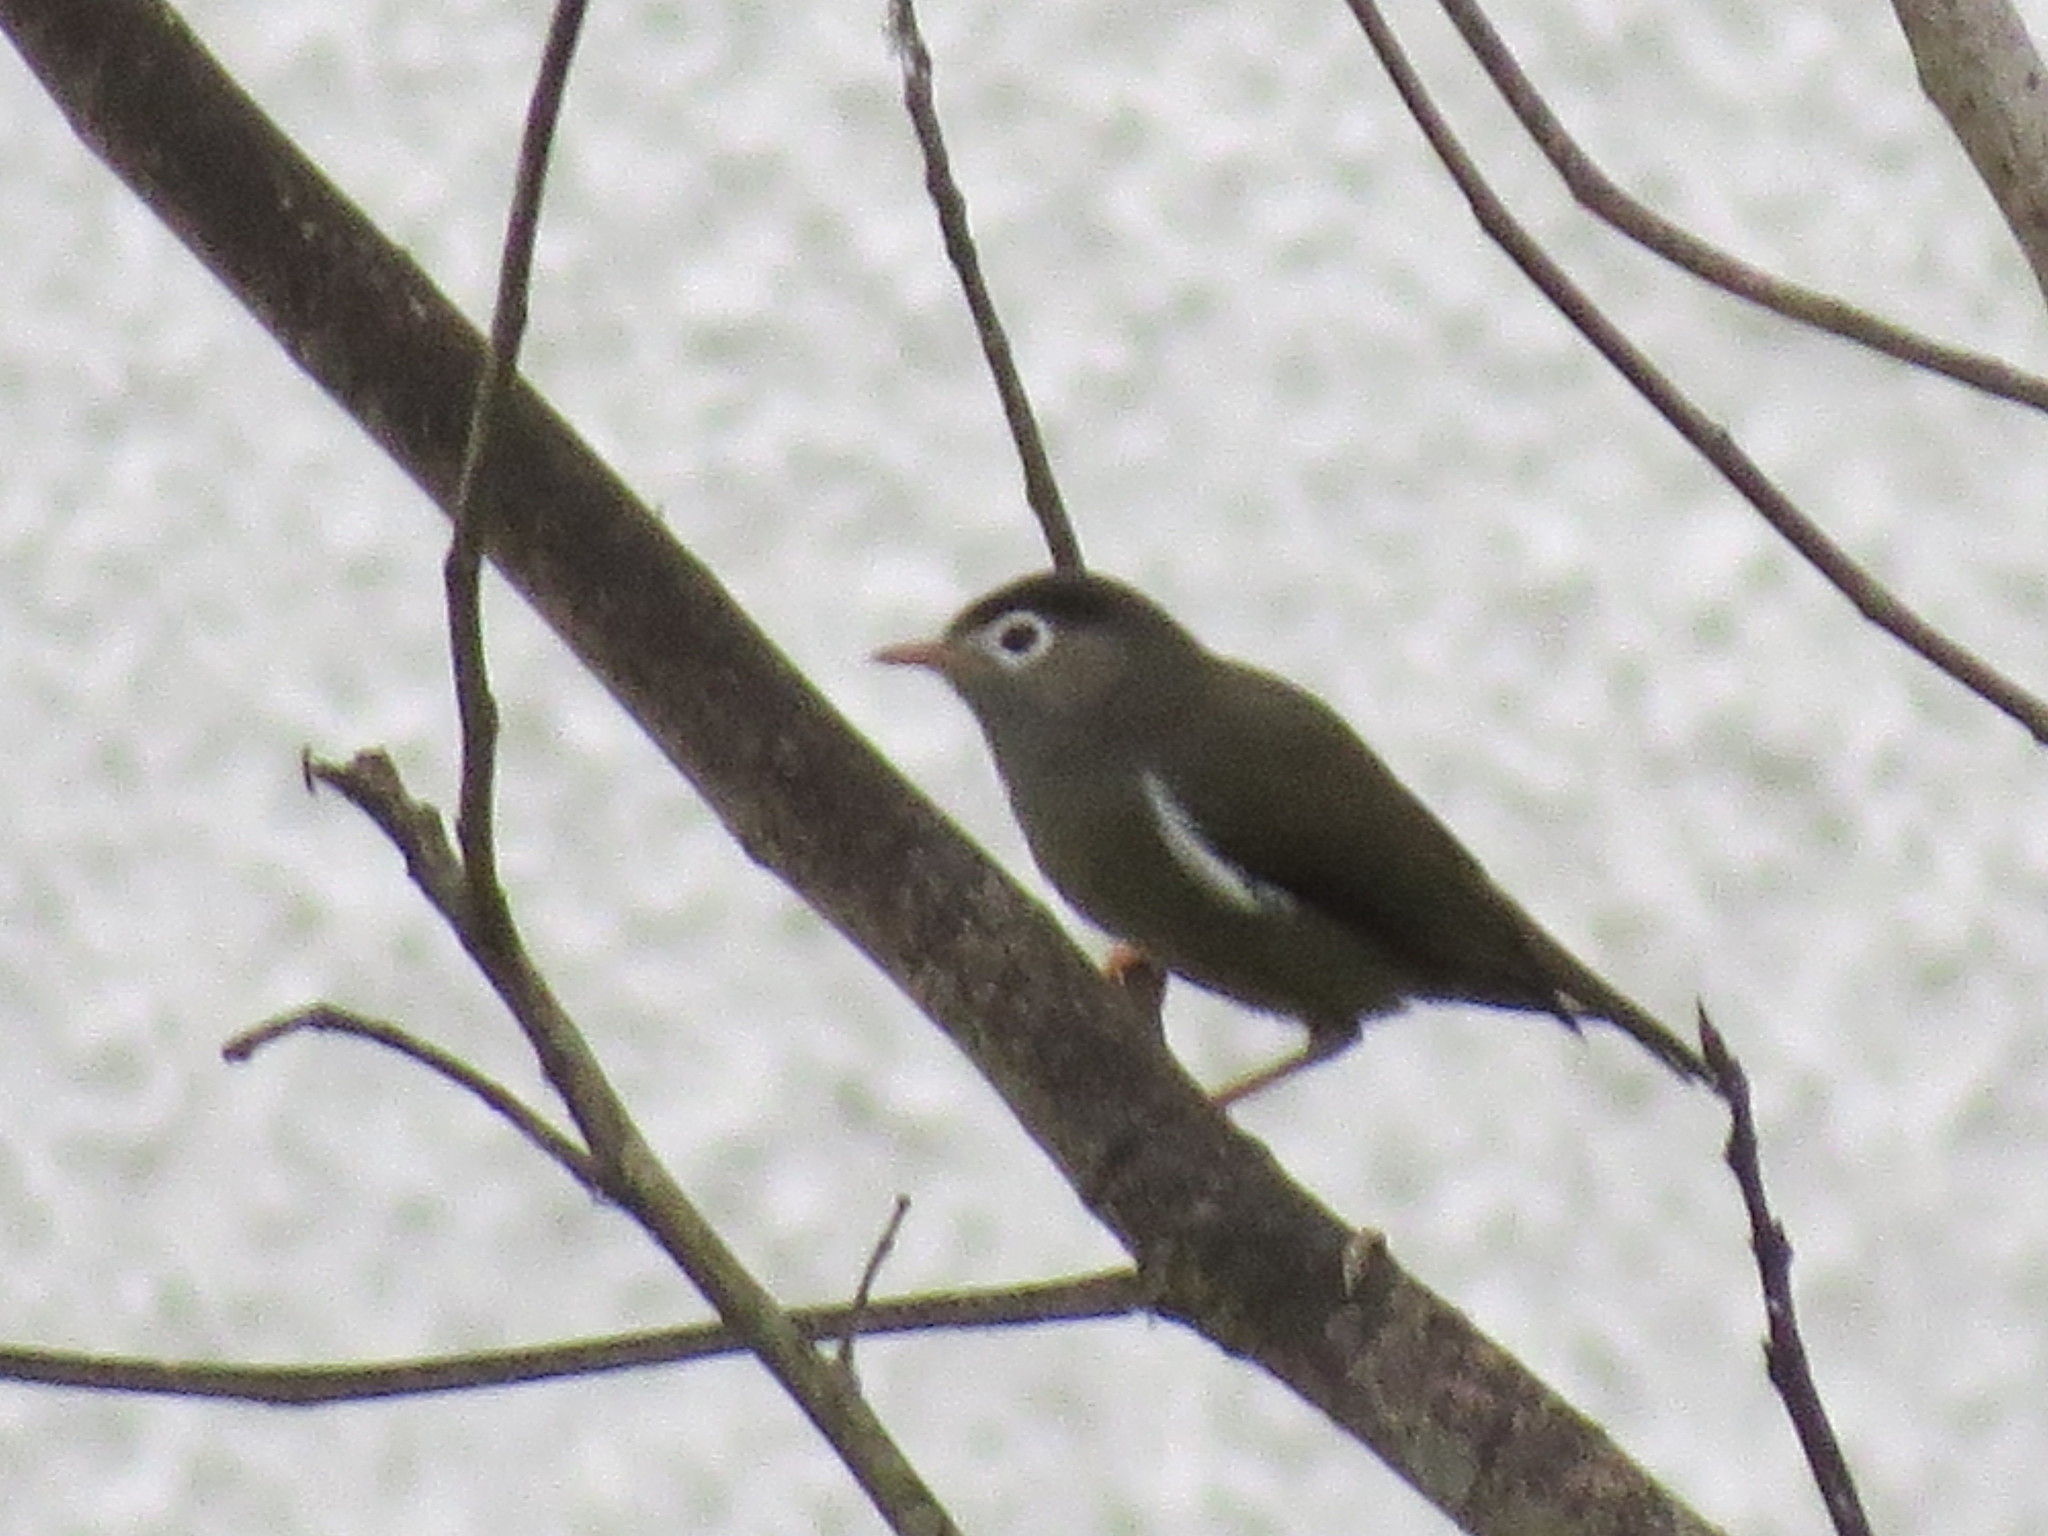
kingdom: Animalia
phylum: Chordata
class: Aves
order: Passeriformes
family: Zosteropidae
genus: Zosterops
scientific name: Zosterops lugubris
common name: Black-capped speirops
